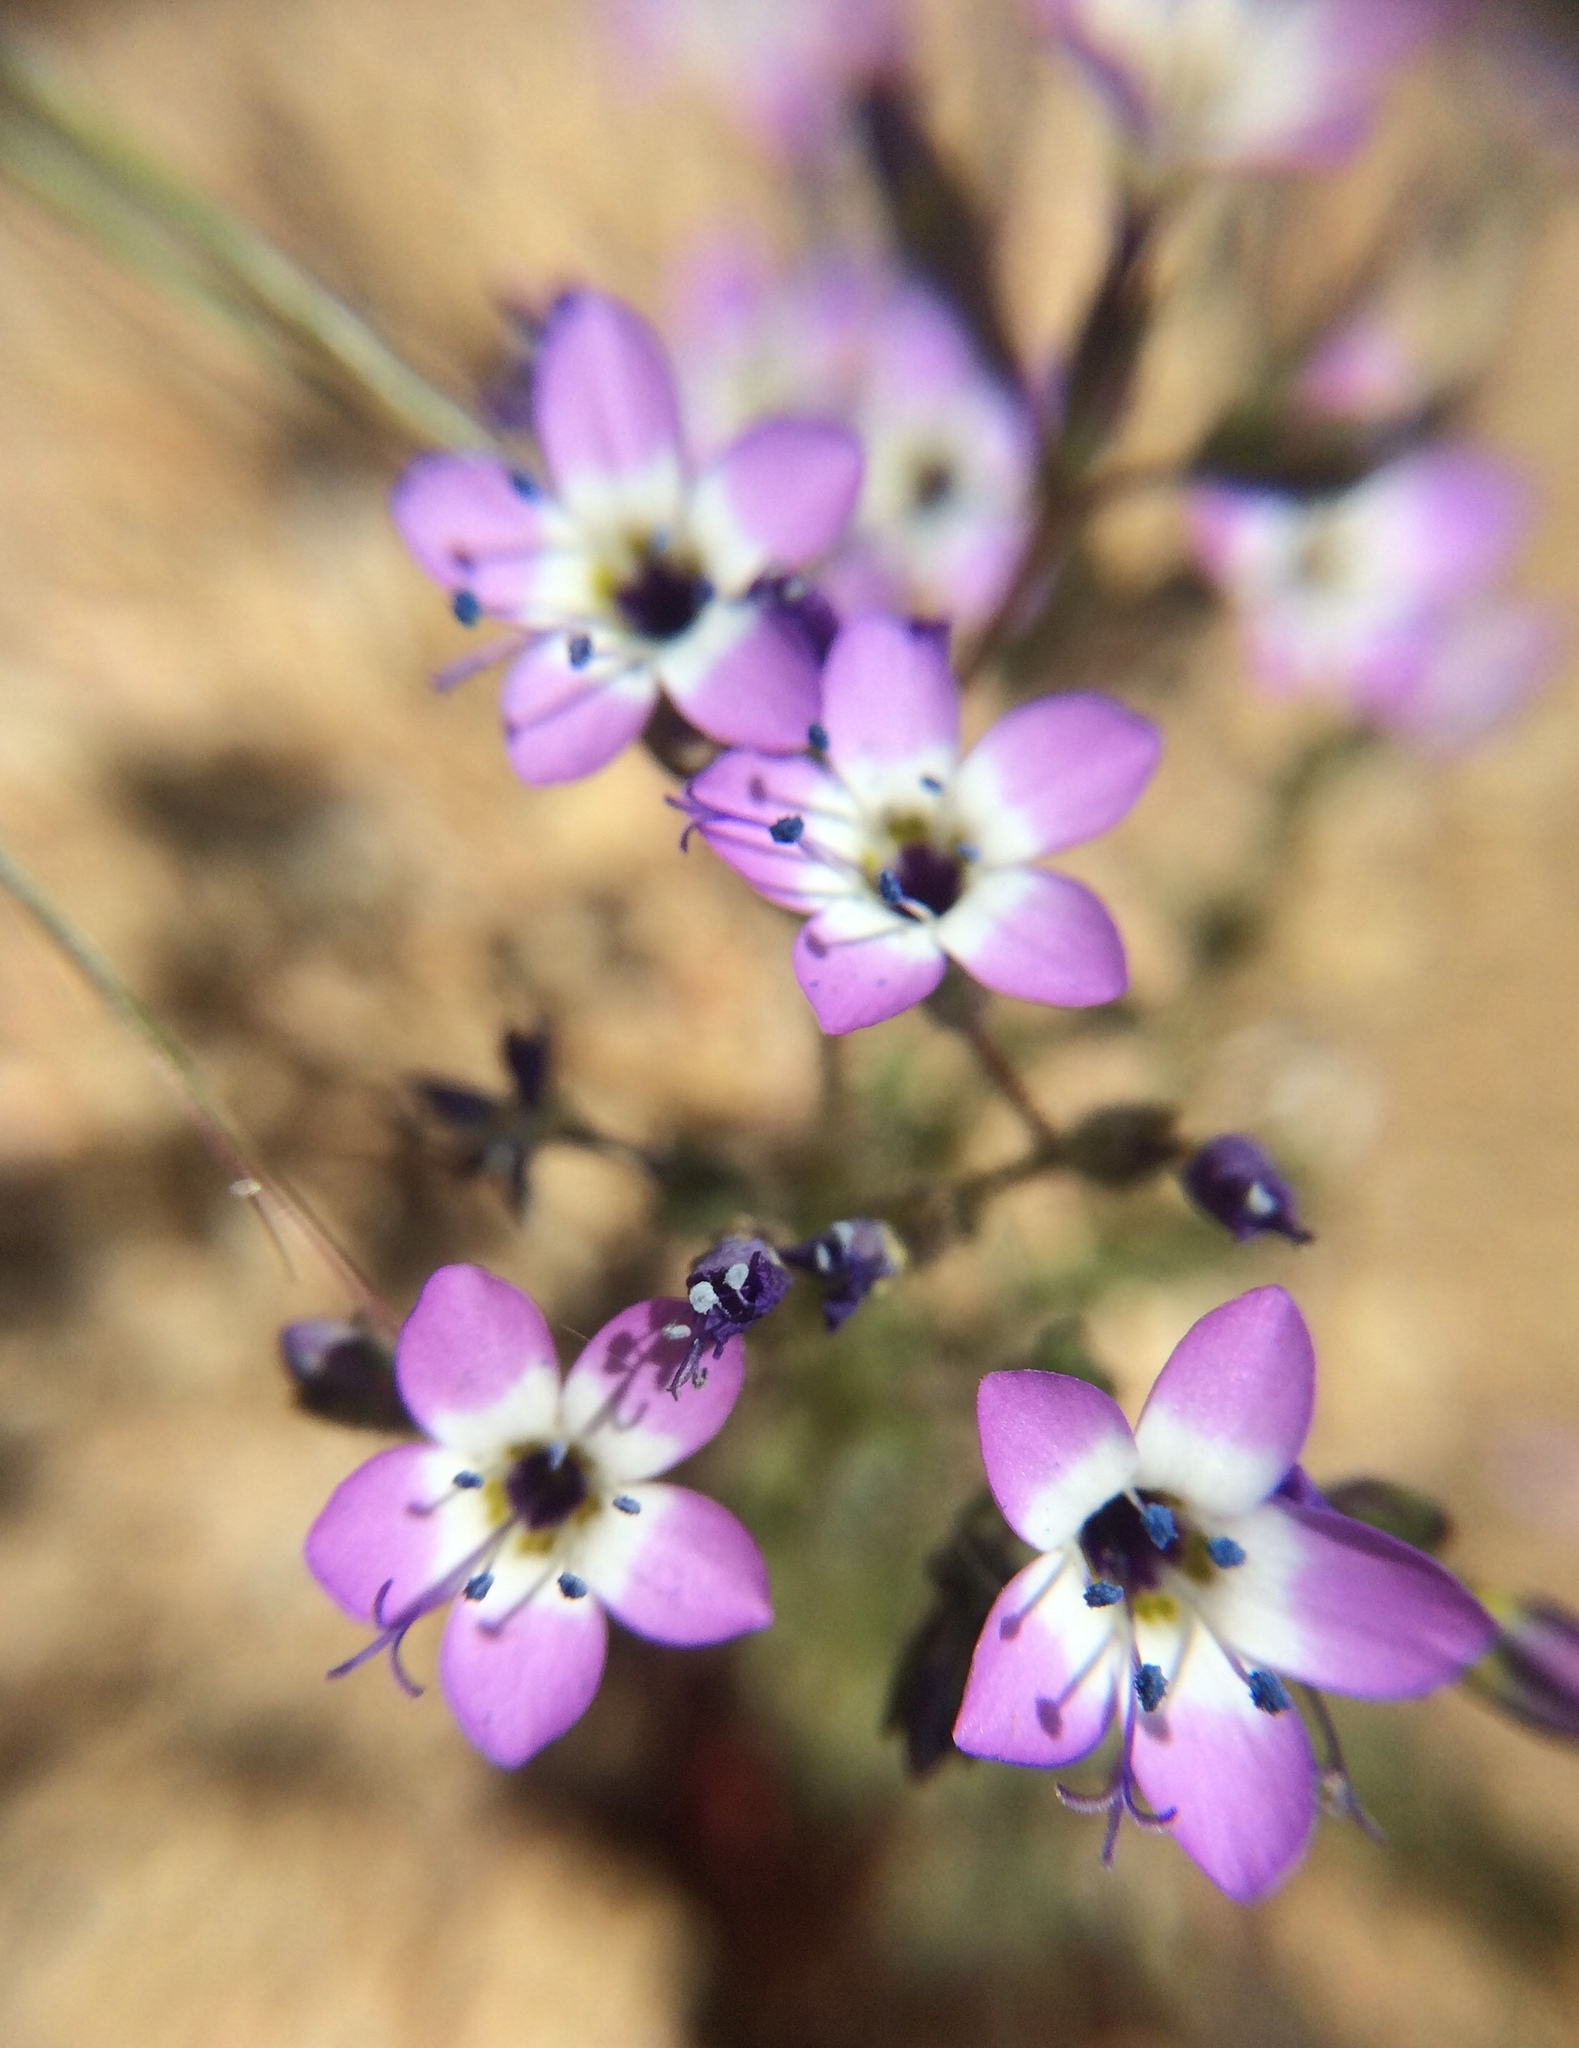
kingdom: Plantae
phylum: Tracheophyta
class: Magnoliopsida
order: Ericales
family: Polemoniaceae
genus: Gilia
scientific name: Gilia brecciarum
